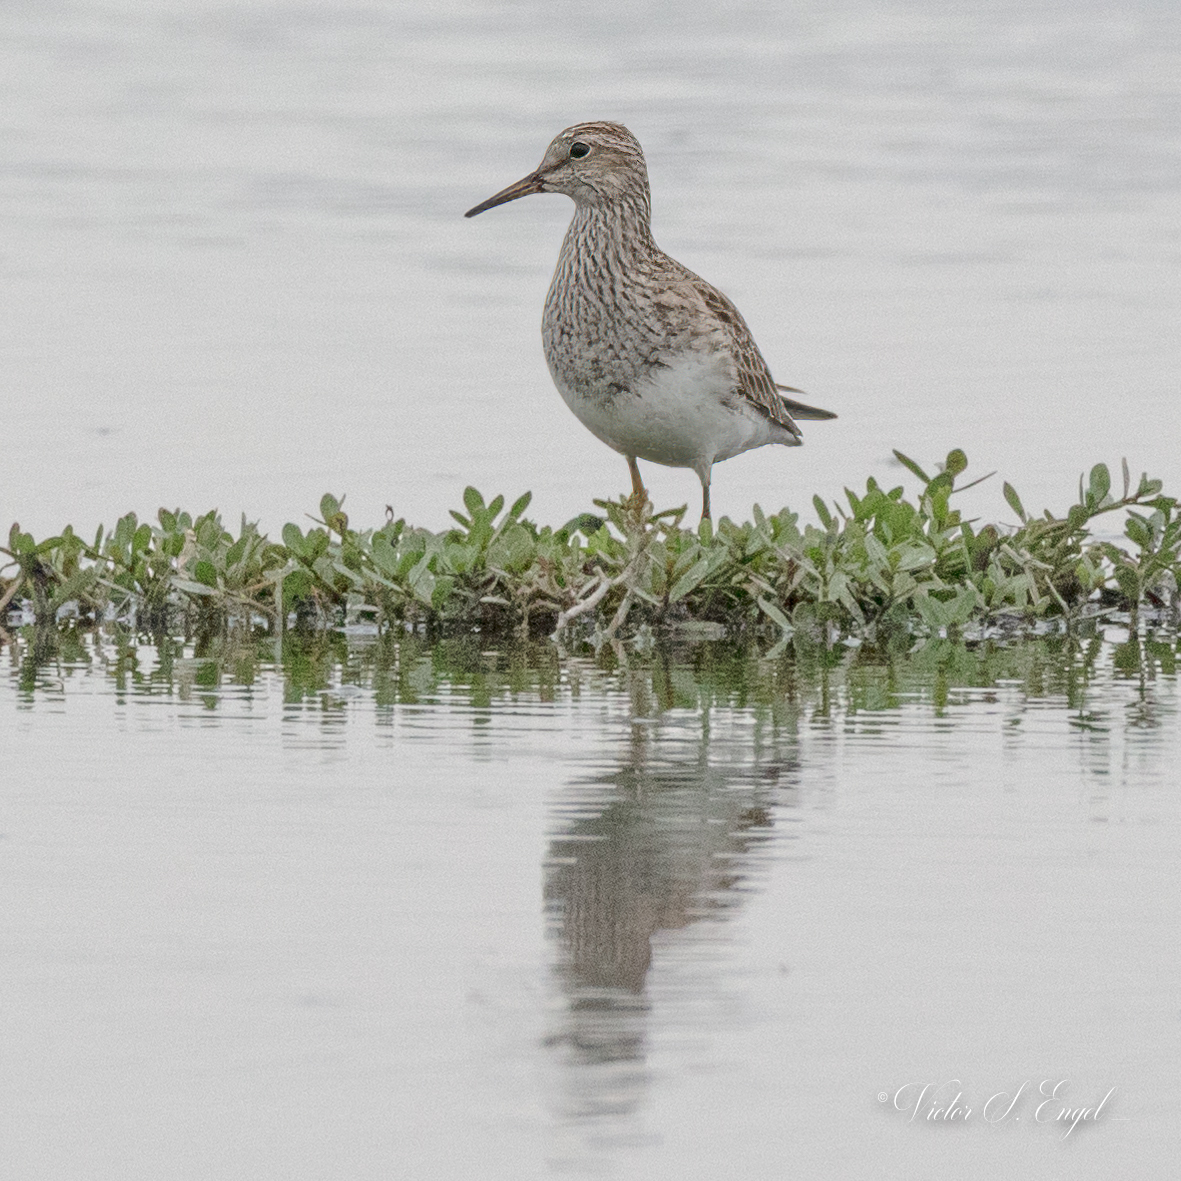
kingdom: Animalia
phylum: Chordata
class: Aves
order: Charadriiformes
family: Scolopacidae
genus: Calidris
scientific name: Calidris melanotos
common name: Pectoral sandpiper
